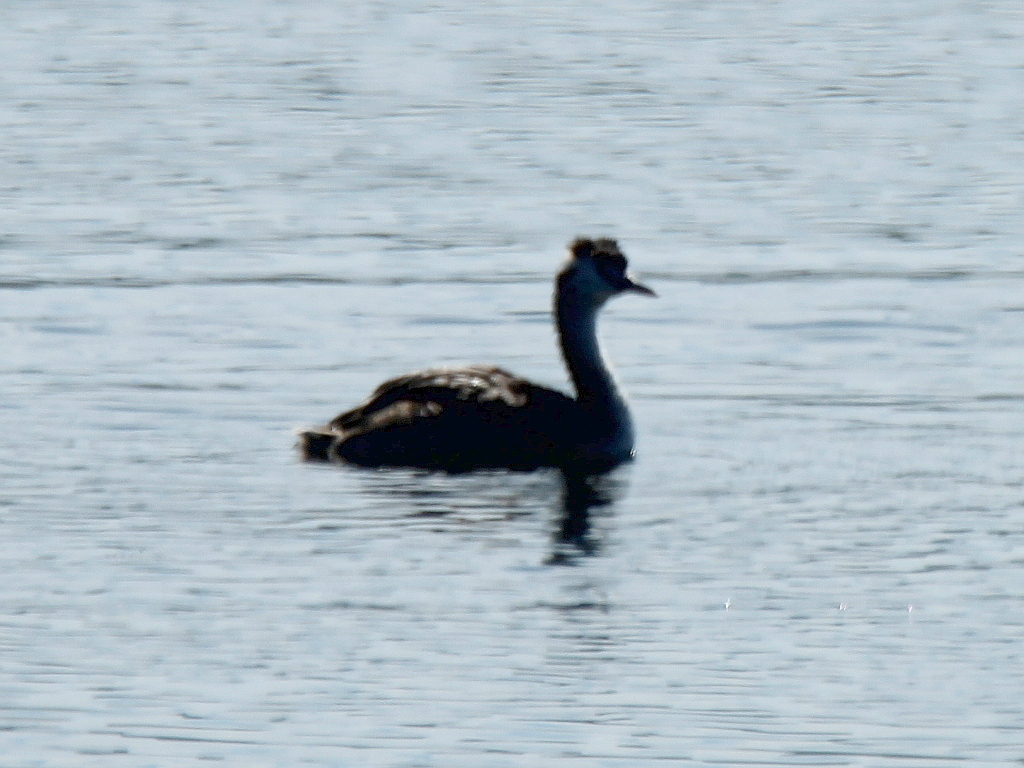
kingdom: Animalia
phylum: Chordata
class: Aves
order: Podicipediformes
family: Podicipedidae
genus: Podiceps
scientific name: Podiceps cristatus
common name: Great crested grebe
